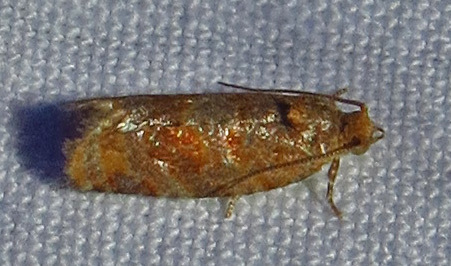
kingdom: Animalia
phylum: Arthropoda
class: Insecta
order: Lepidoptera
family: Tortricidae
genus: Argyrotaenia
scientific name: Argyrotaenia pinatubana
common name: Pine tube moth
